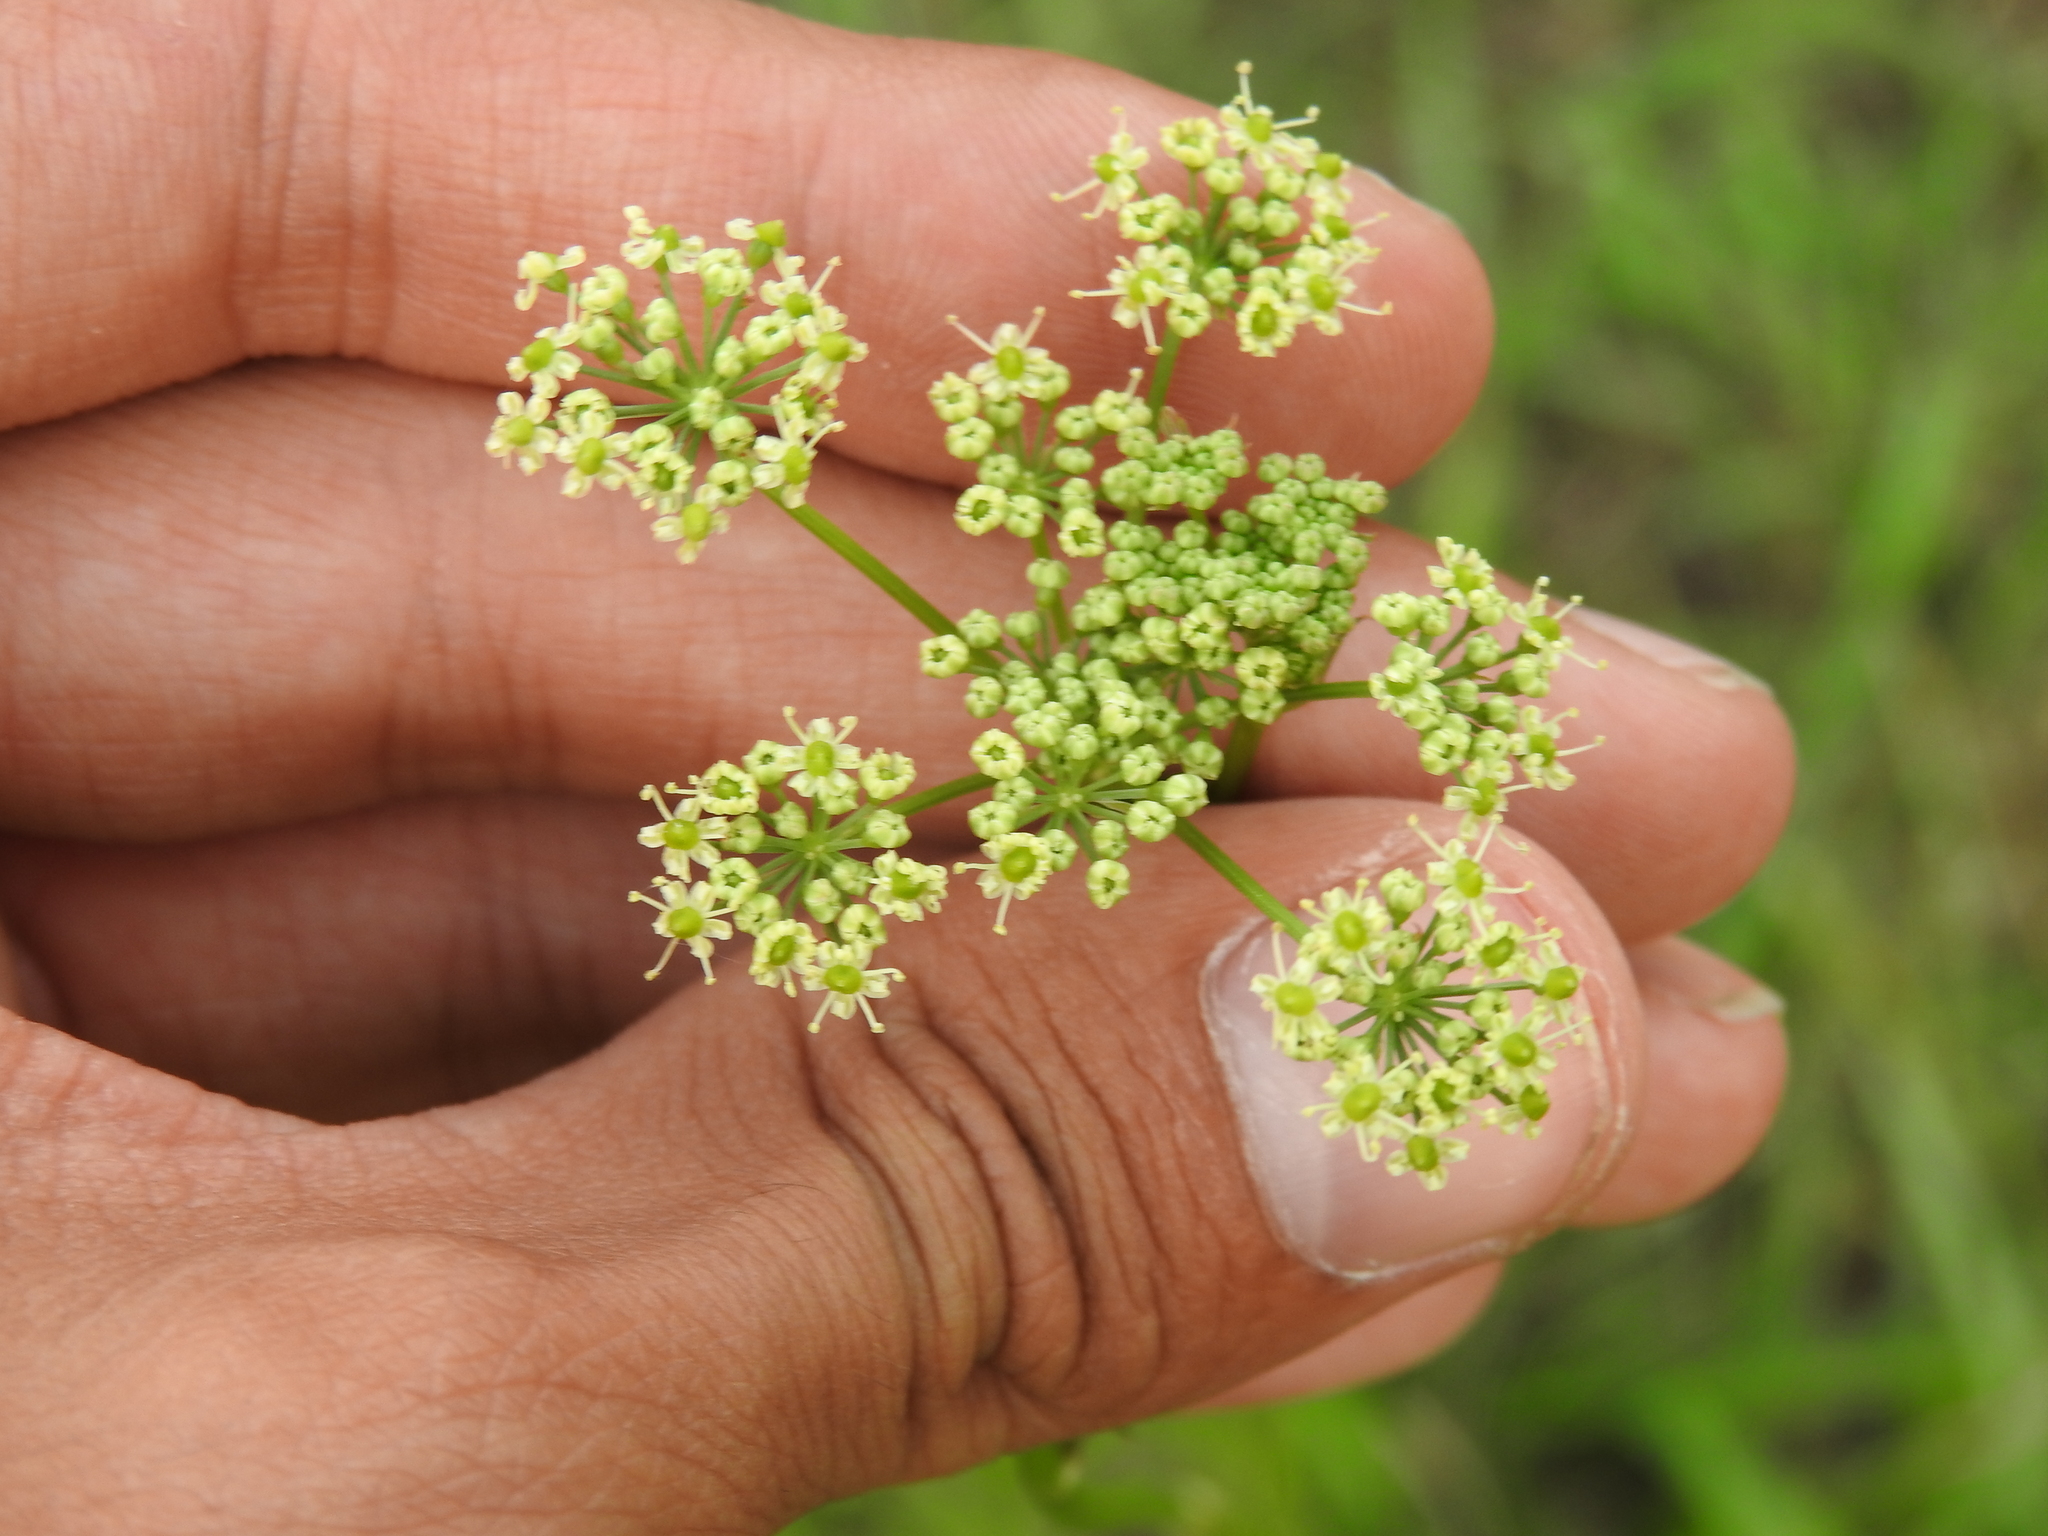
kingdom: Plantae
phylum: Tracheophyta
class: Magnoliopsida
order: Apiales
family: Apiaceae
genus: Silaum
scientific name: Silaum silaus
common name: Pepper-saxifrage
